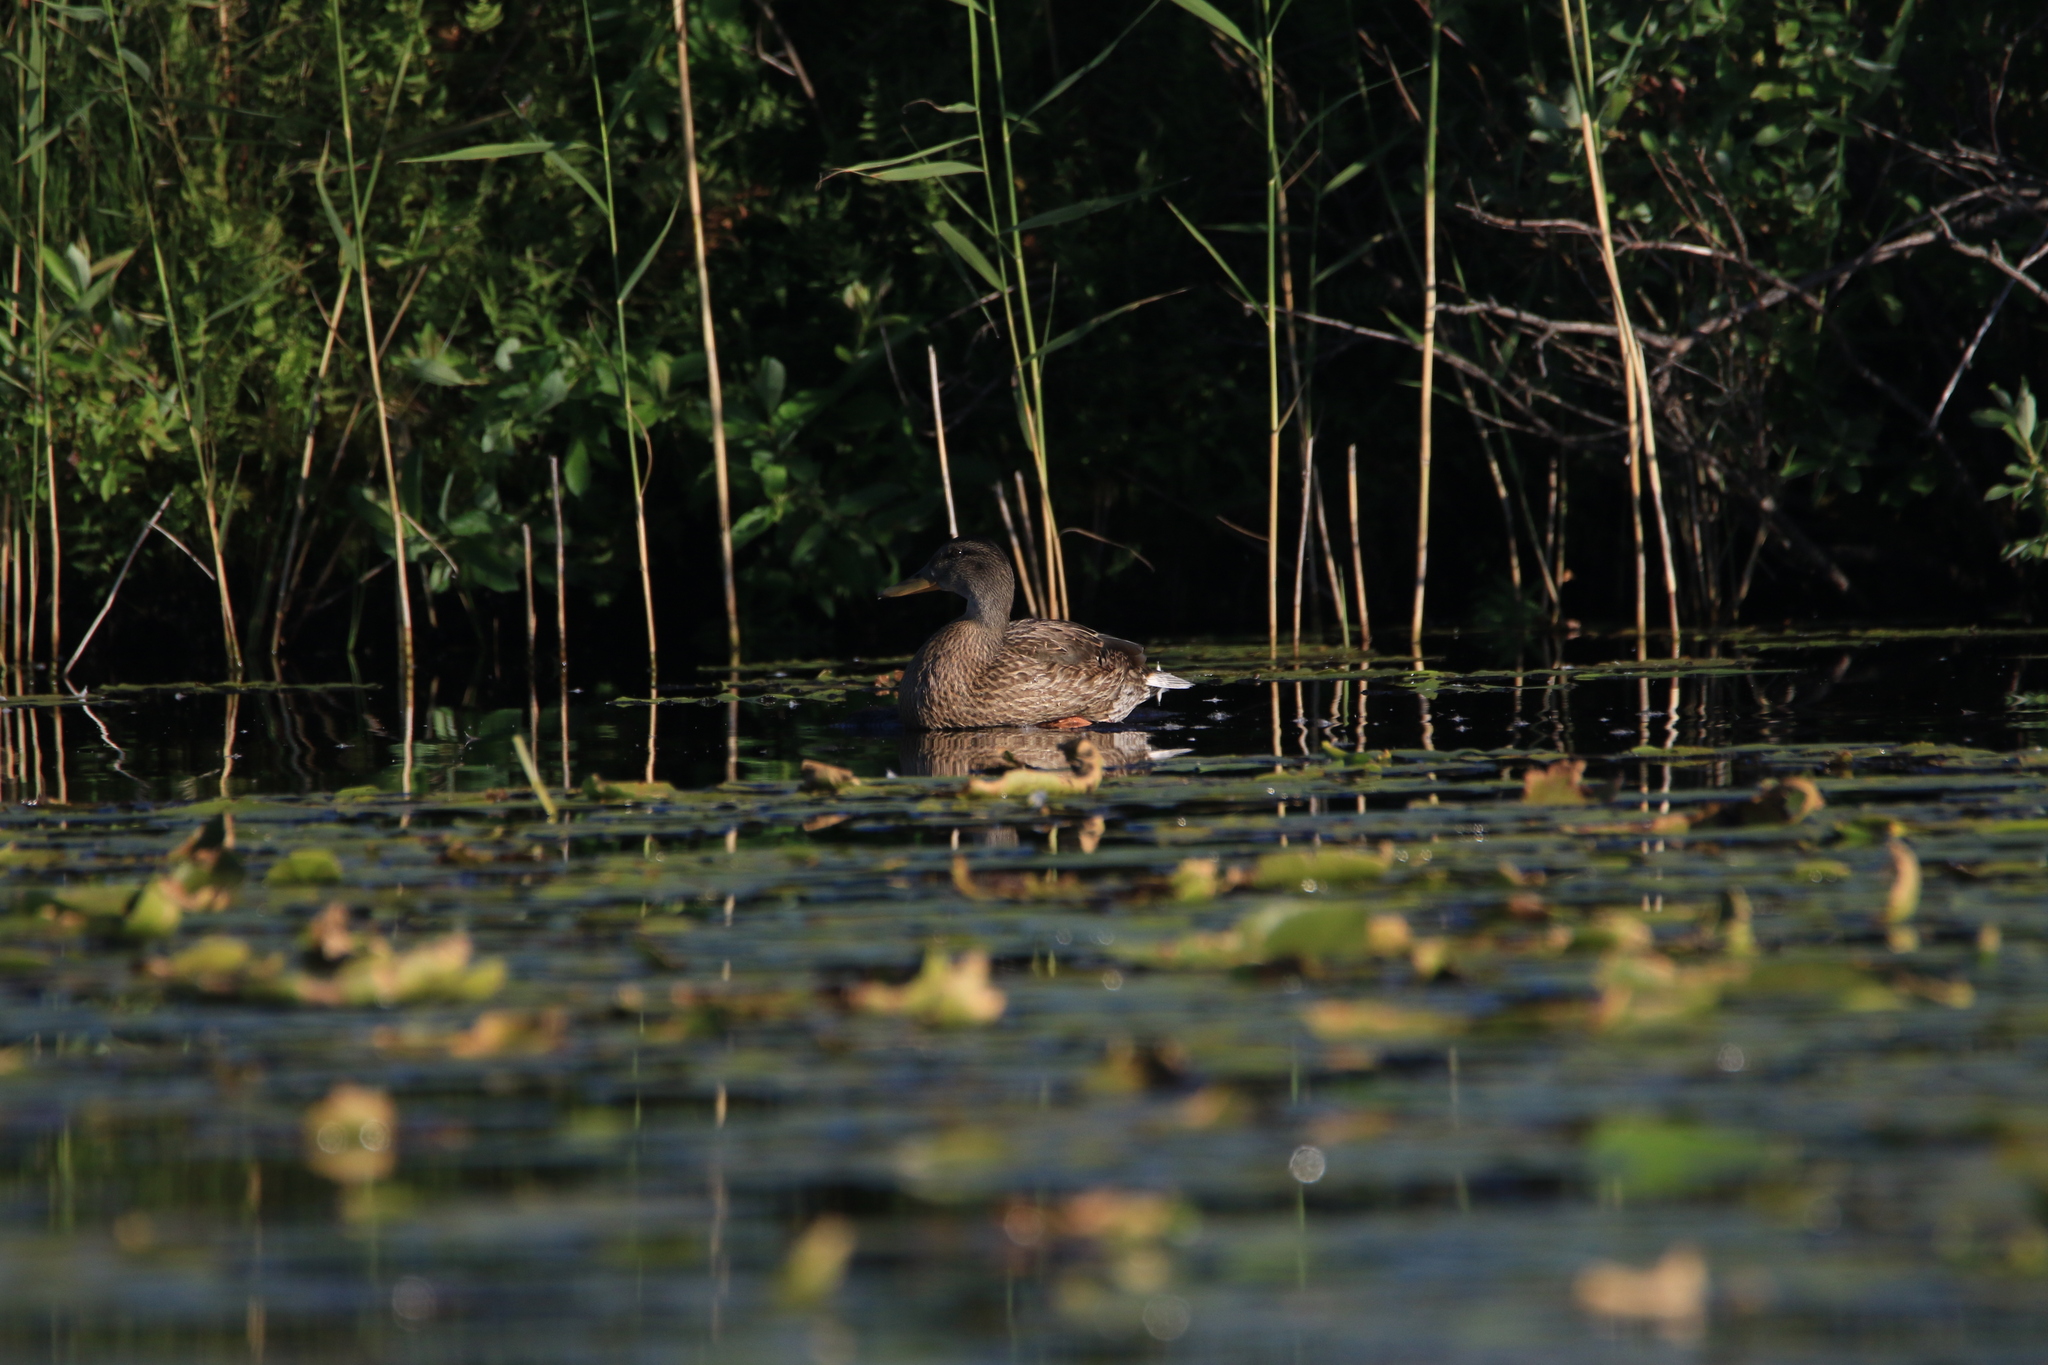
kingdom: Animalia
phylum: Chordata
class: Aves
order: Anseriformes
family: Anatidae
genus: Anas
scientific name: Anas platyrhynchos
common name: Mallard
